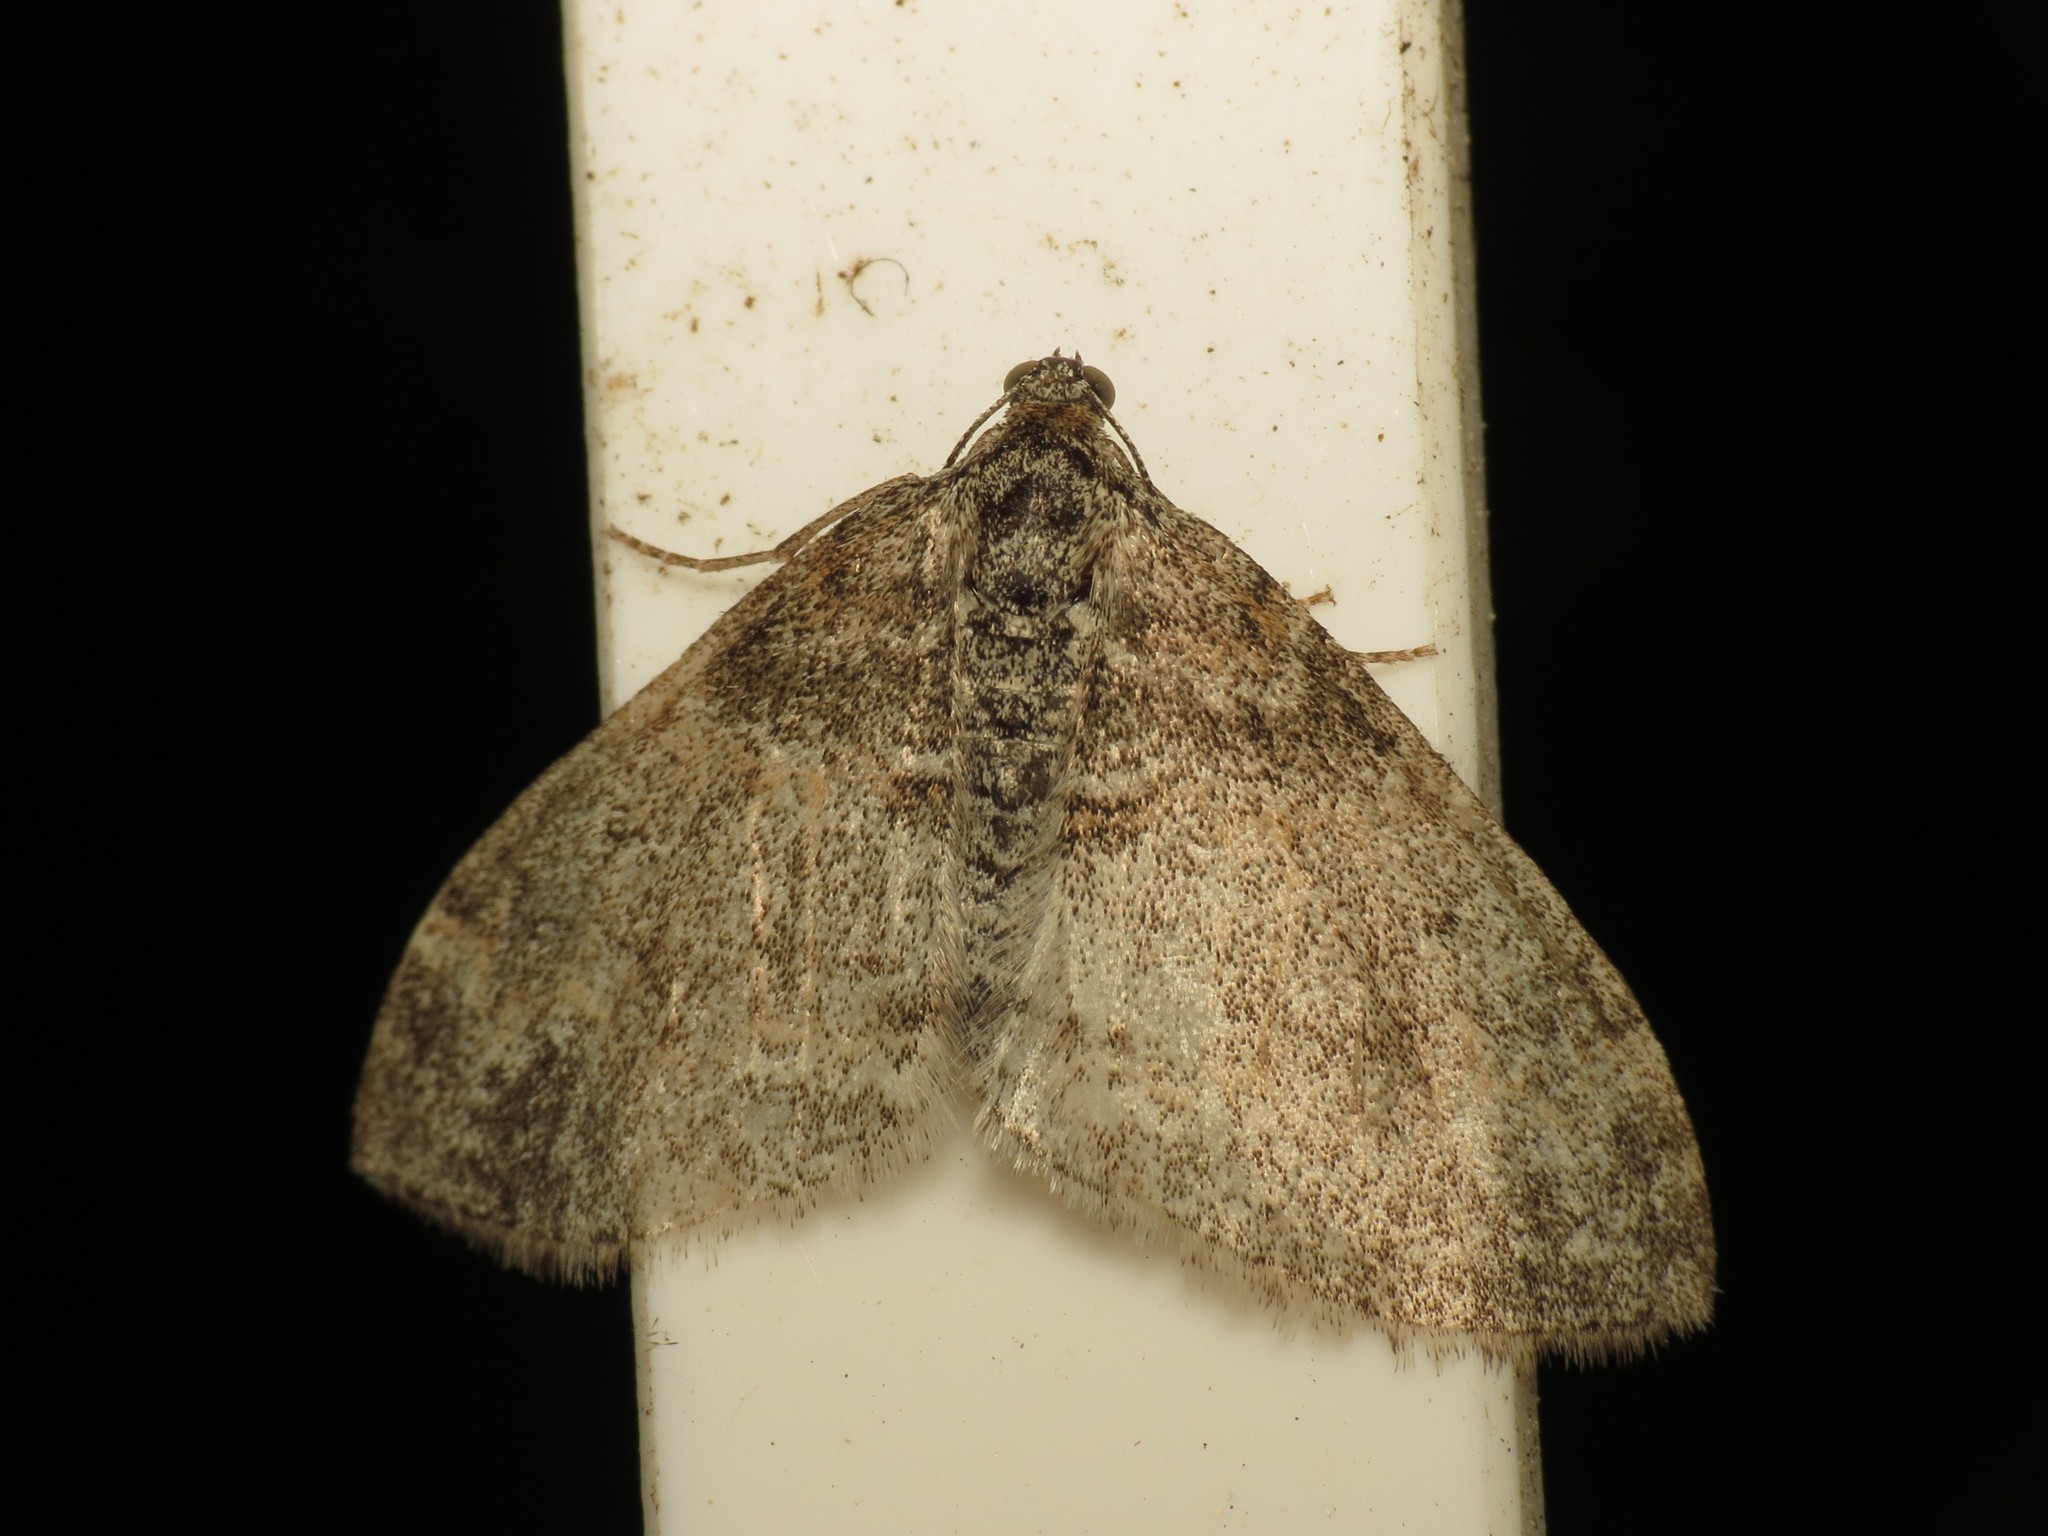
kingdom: Animalia
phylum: Arthropoda
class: Insecta
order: Lepidoptera
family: Geometridae
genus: Lobophora
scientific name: Lobophora halterata
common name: Seraphim
